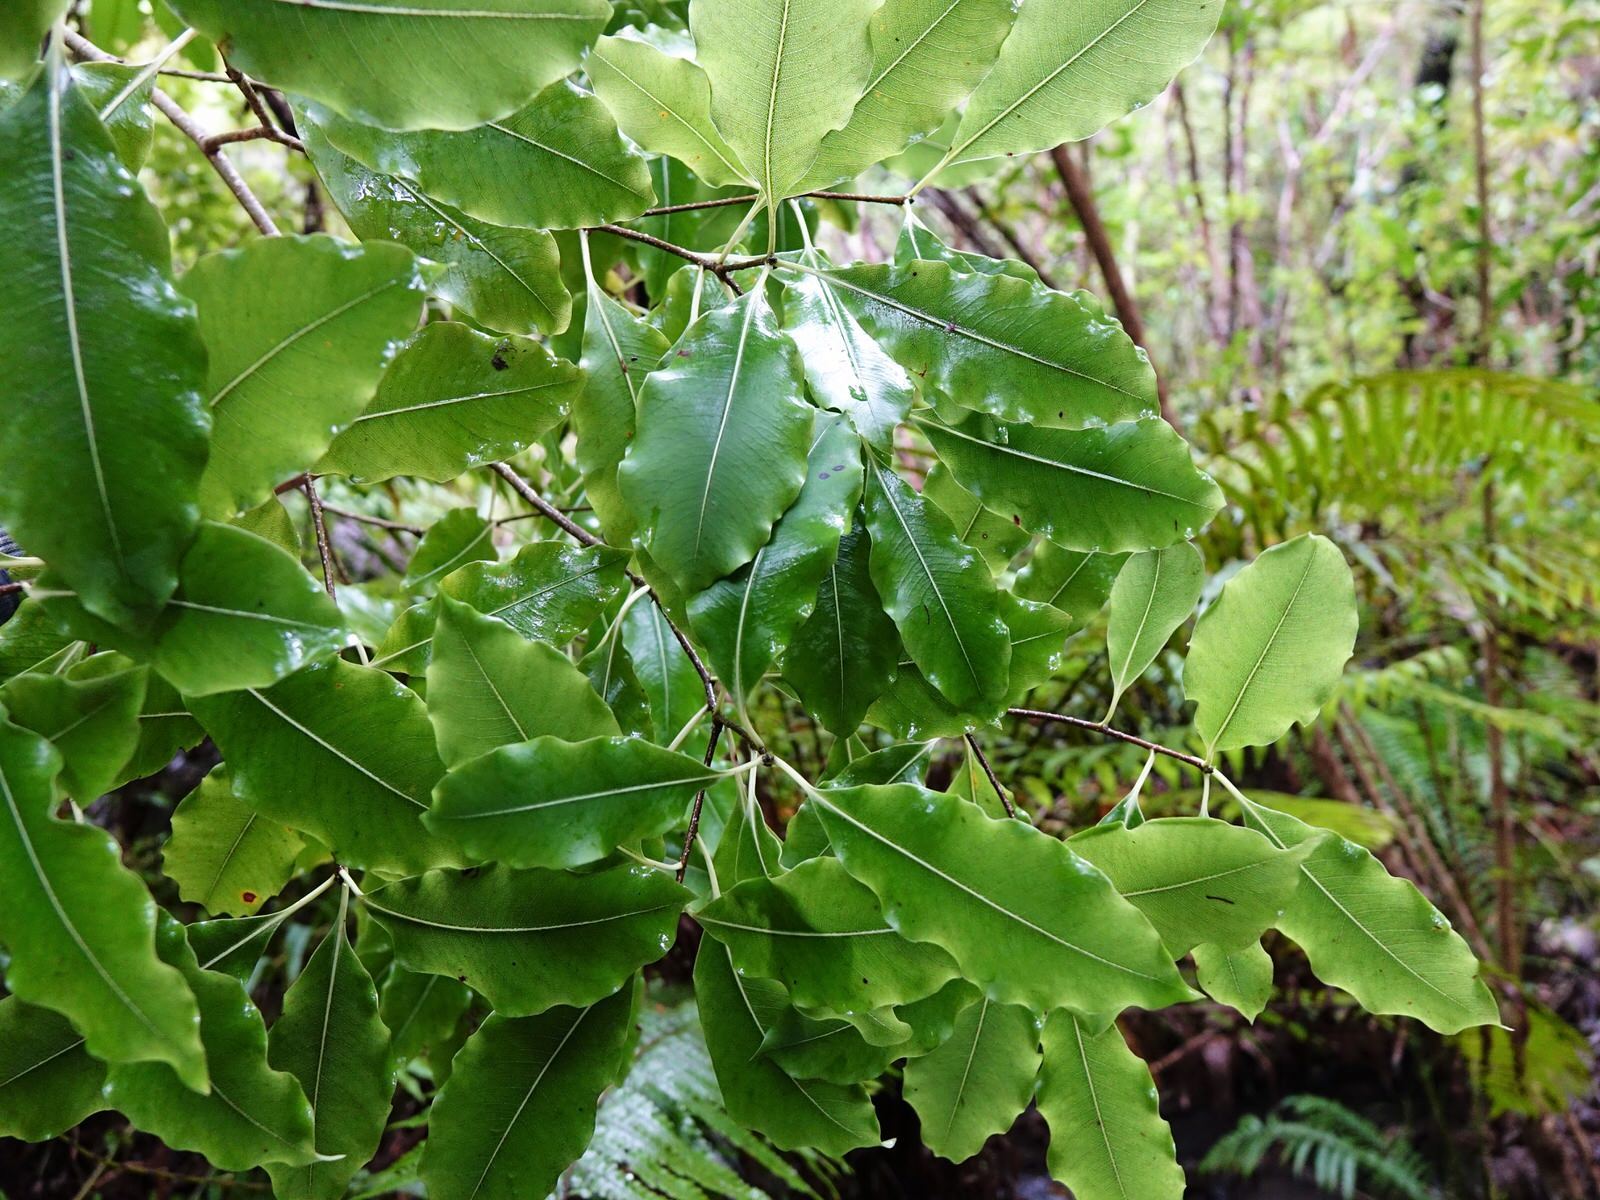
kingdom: Plantae
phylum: Tracheophyta
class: Magnoliopsida
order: Apiales
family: Pittosporaceae
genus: Pittosporum
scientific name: Pittosporum eugenioides
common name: Lemonwood
